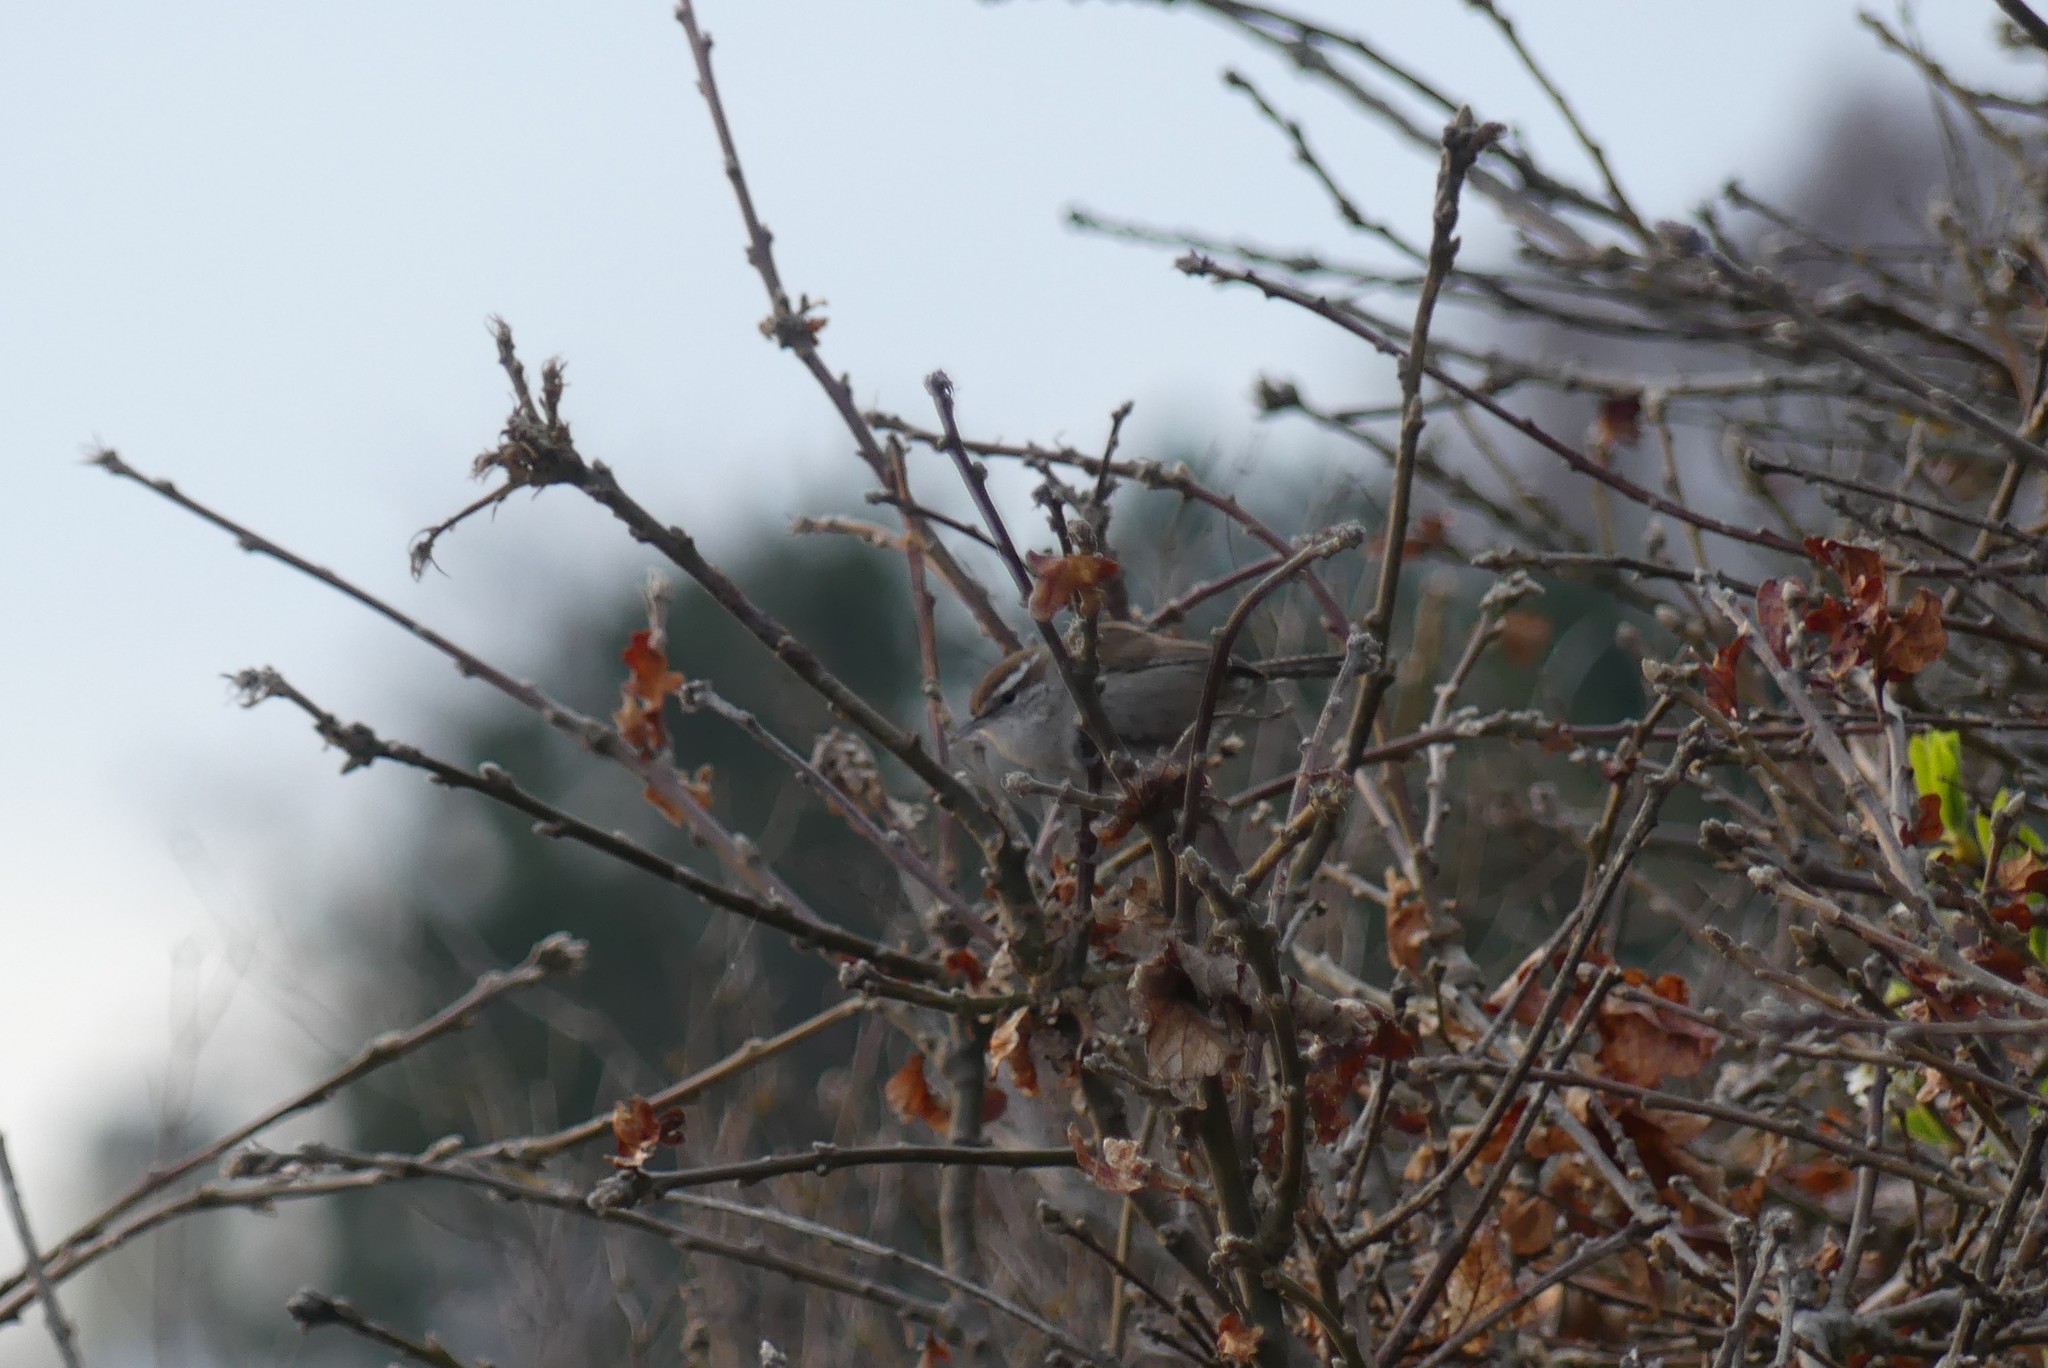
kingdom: Animalia
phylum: Chordata
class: Aves
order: Passeriformes
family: Troglodytidae
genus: Thryomanes
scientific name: Thryomanes bewickii
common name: Bewick's wren
